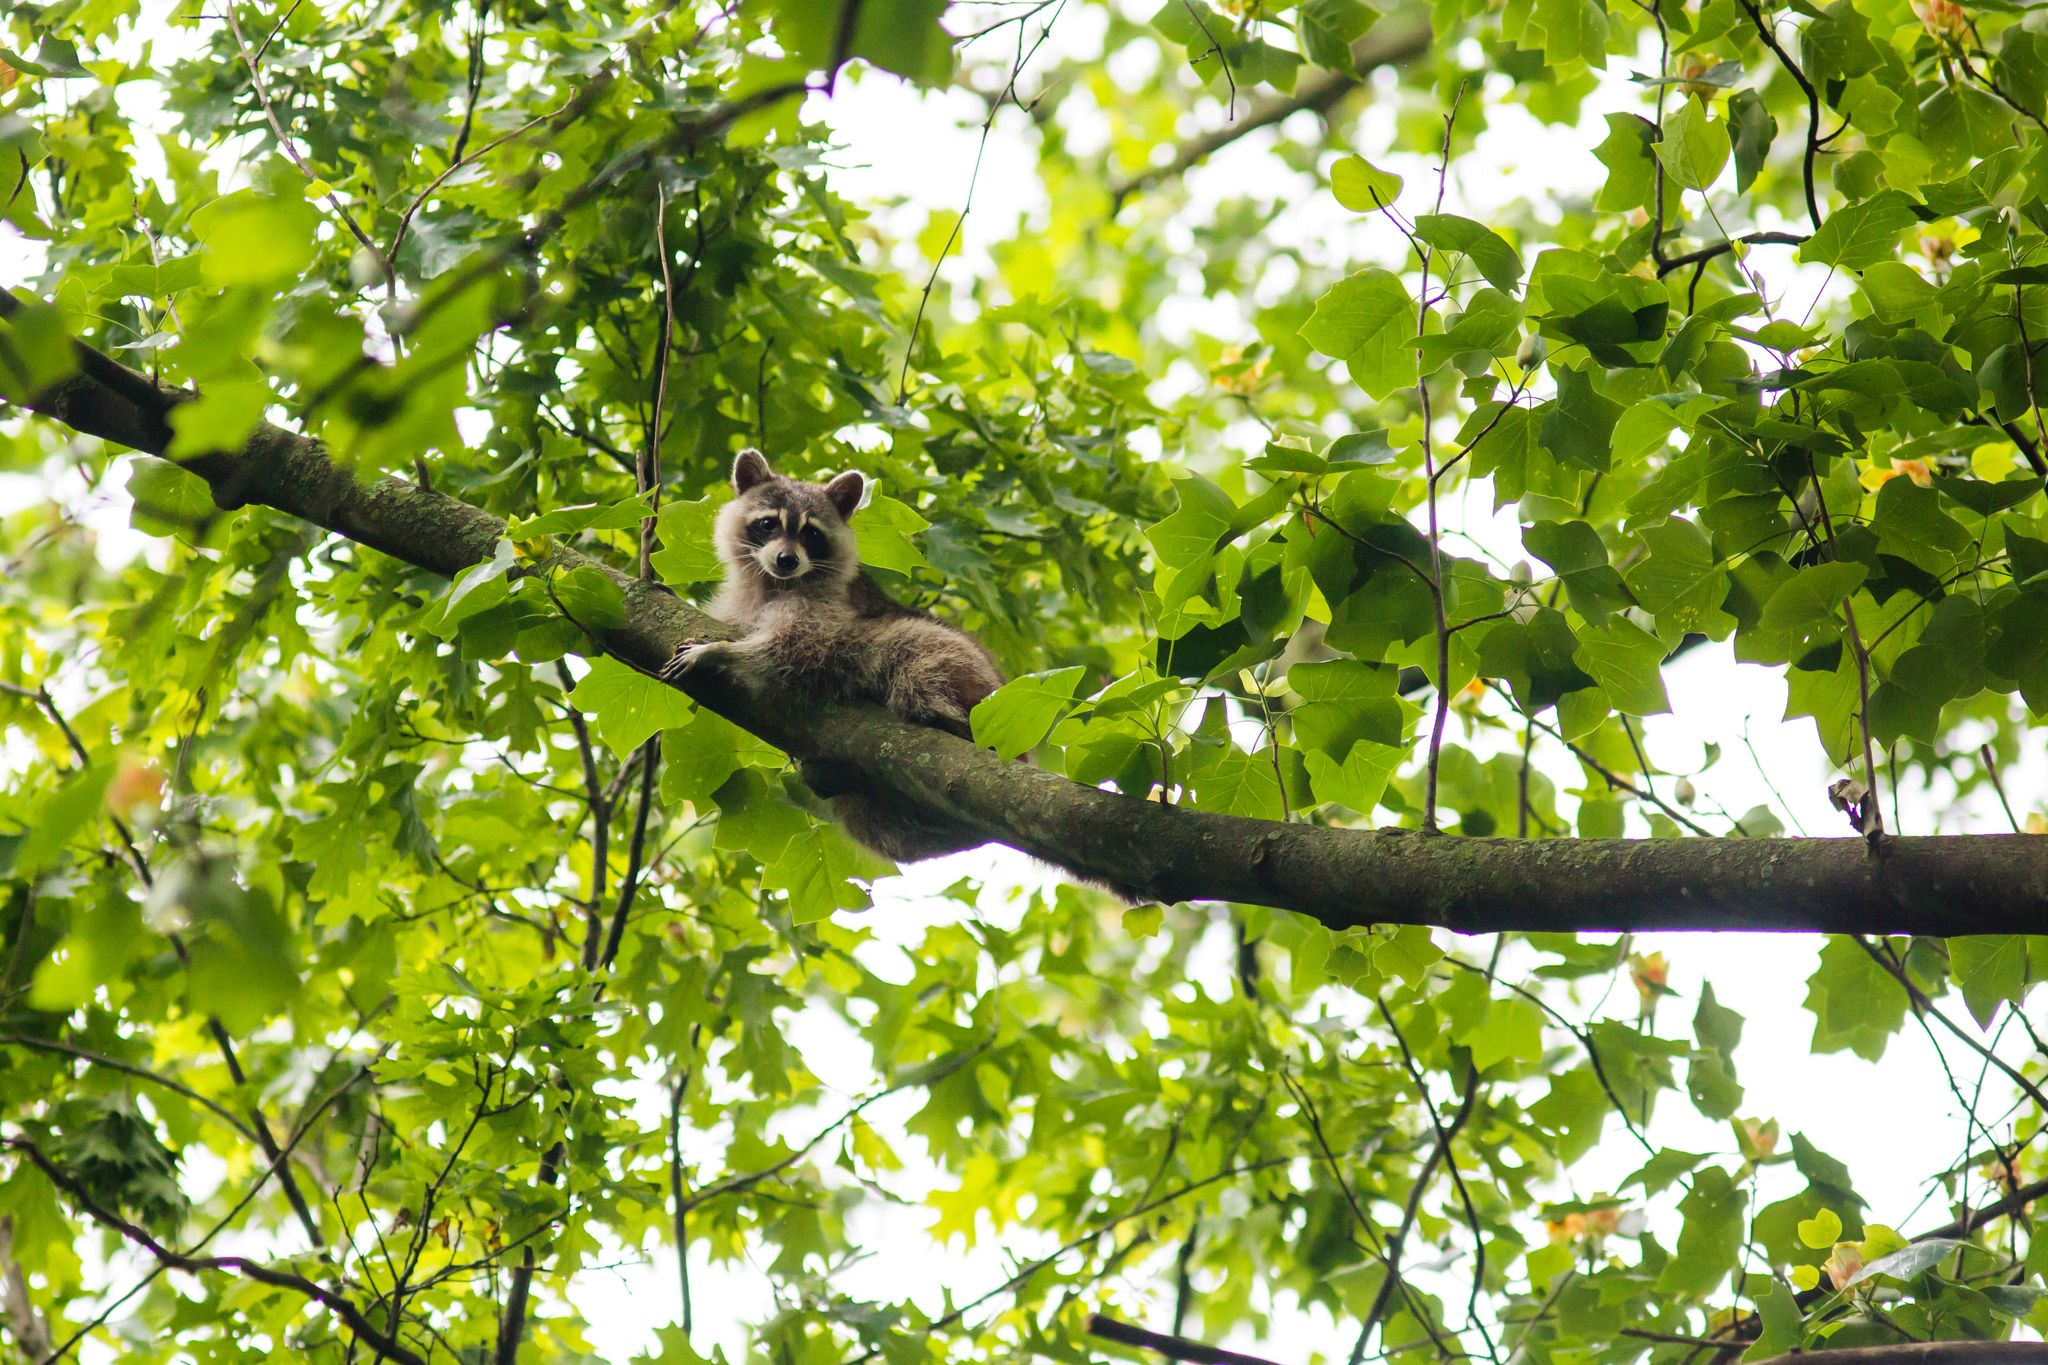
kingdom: Animalia
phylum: Chordata
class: Mammalia
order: Carnivora
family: Procyonidae
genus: Procyon
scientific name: Procyon lotor
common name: Raccoon
